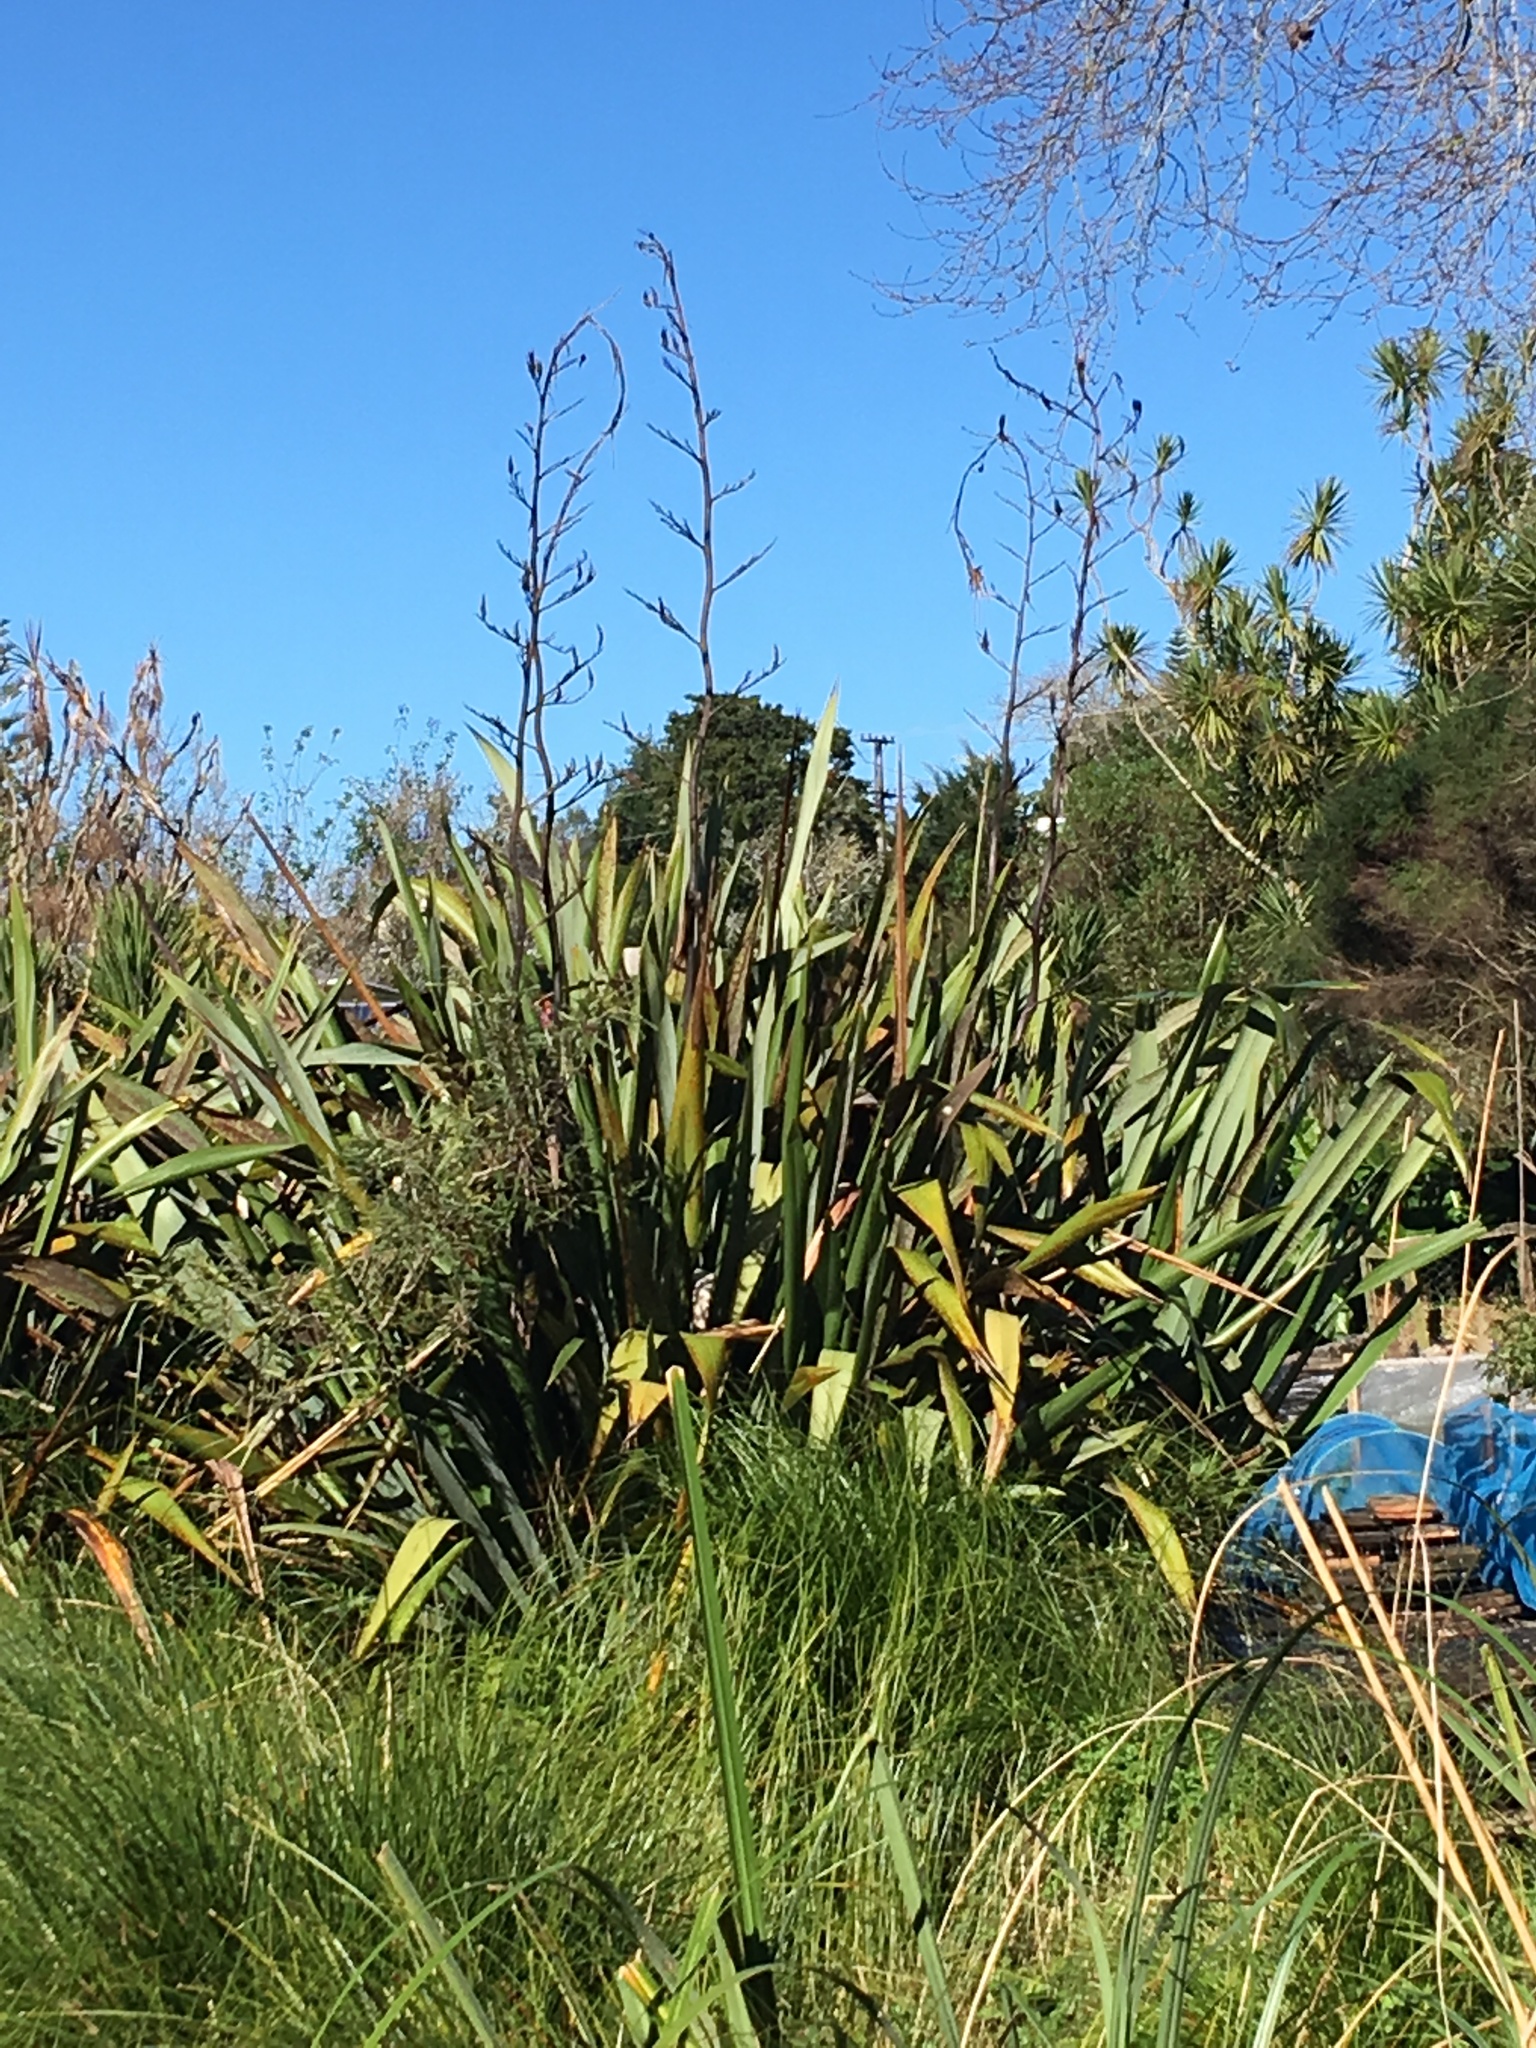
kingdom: Plantae
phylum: Tracheophyta
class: Liliopsida
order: Asparagales
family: Asphodelaceae
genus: Phormium
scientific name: Phormium tenax
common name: New zealand flax
